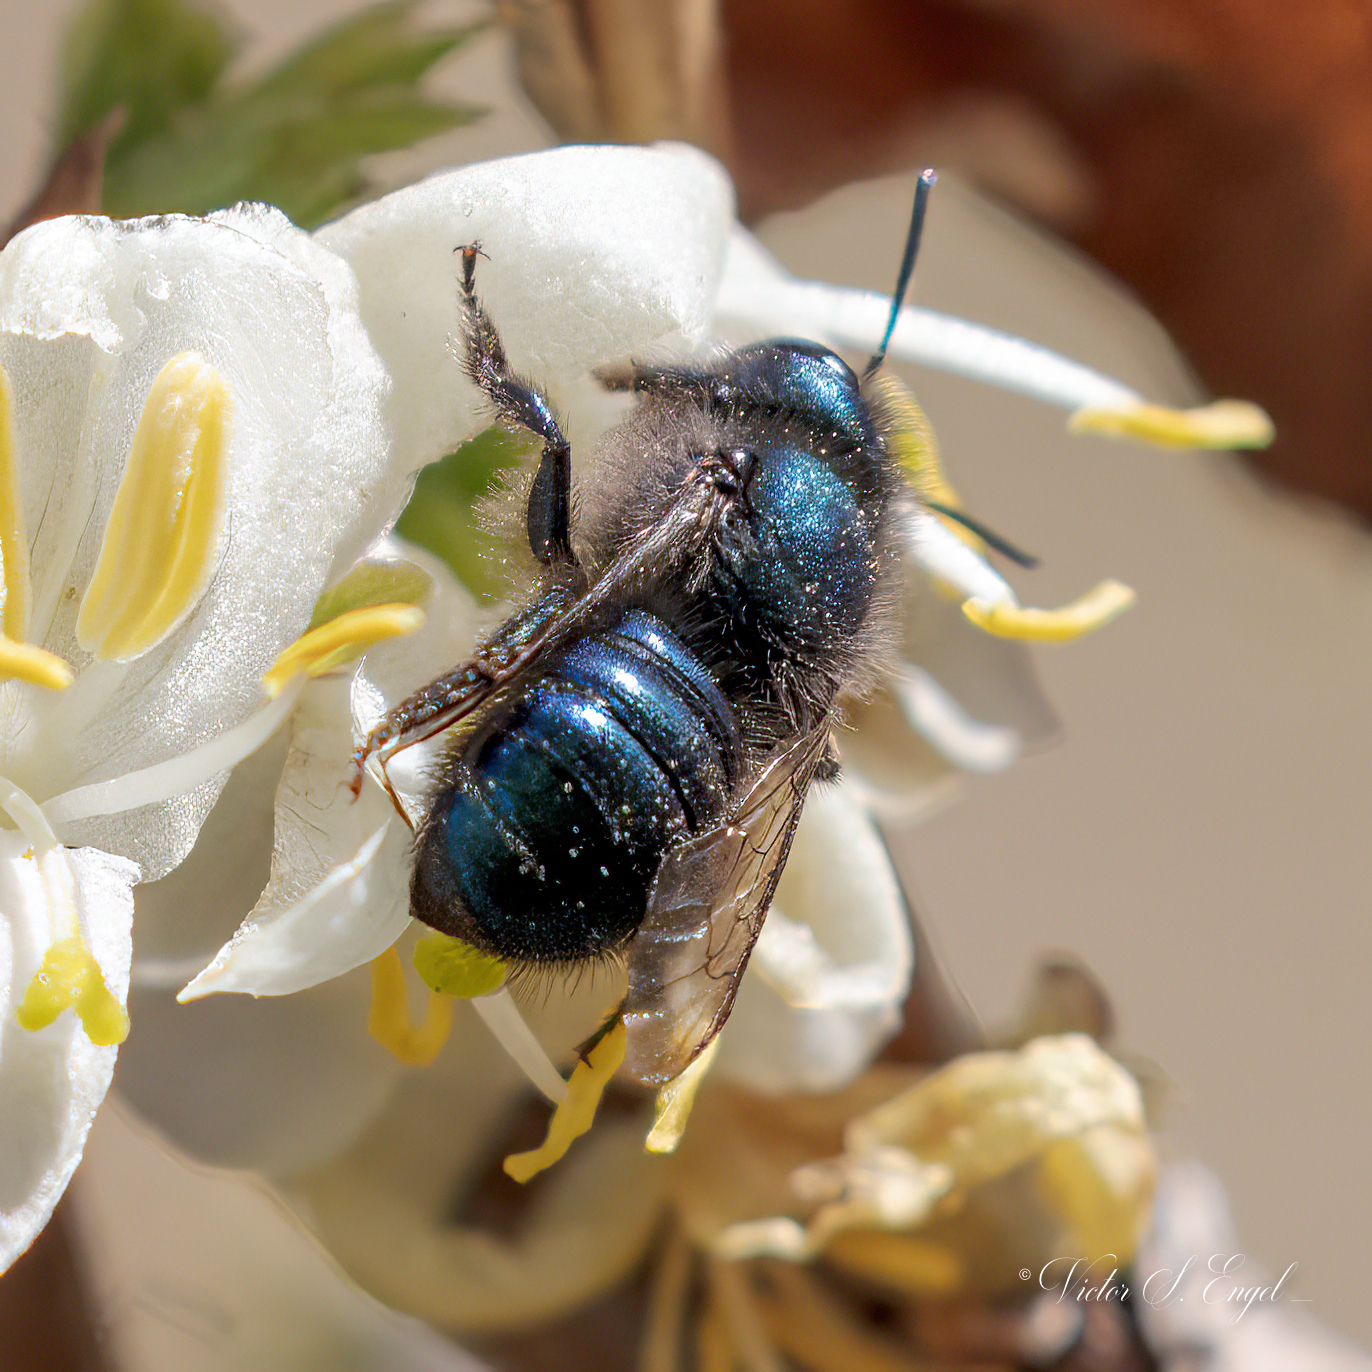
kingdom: Animalia
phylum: Arthropoda
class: Insecta
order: Hymenoptera
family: Megachilidae
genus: Osmia
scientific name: Osmia ribifloris
